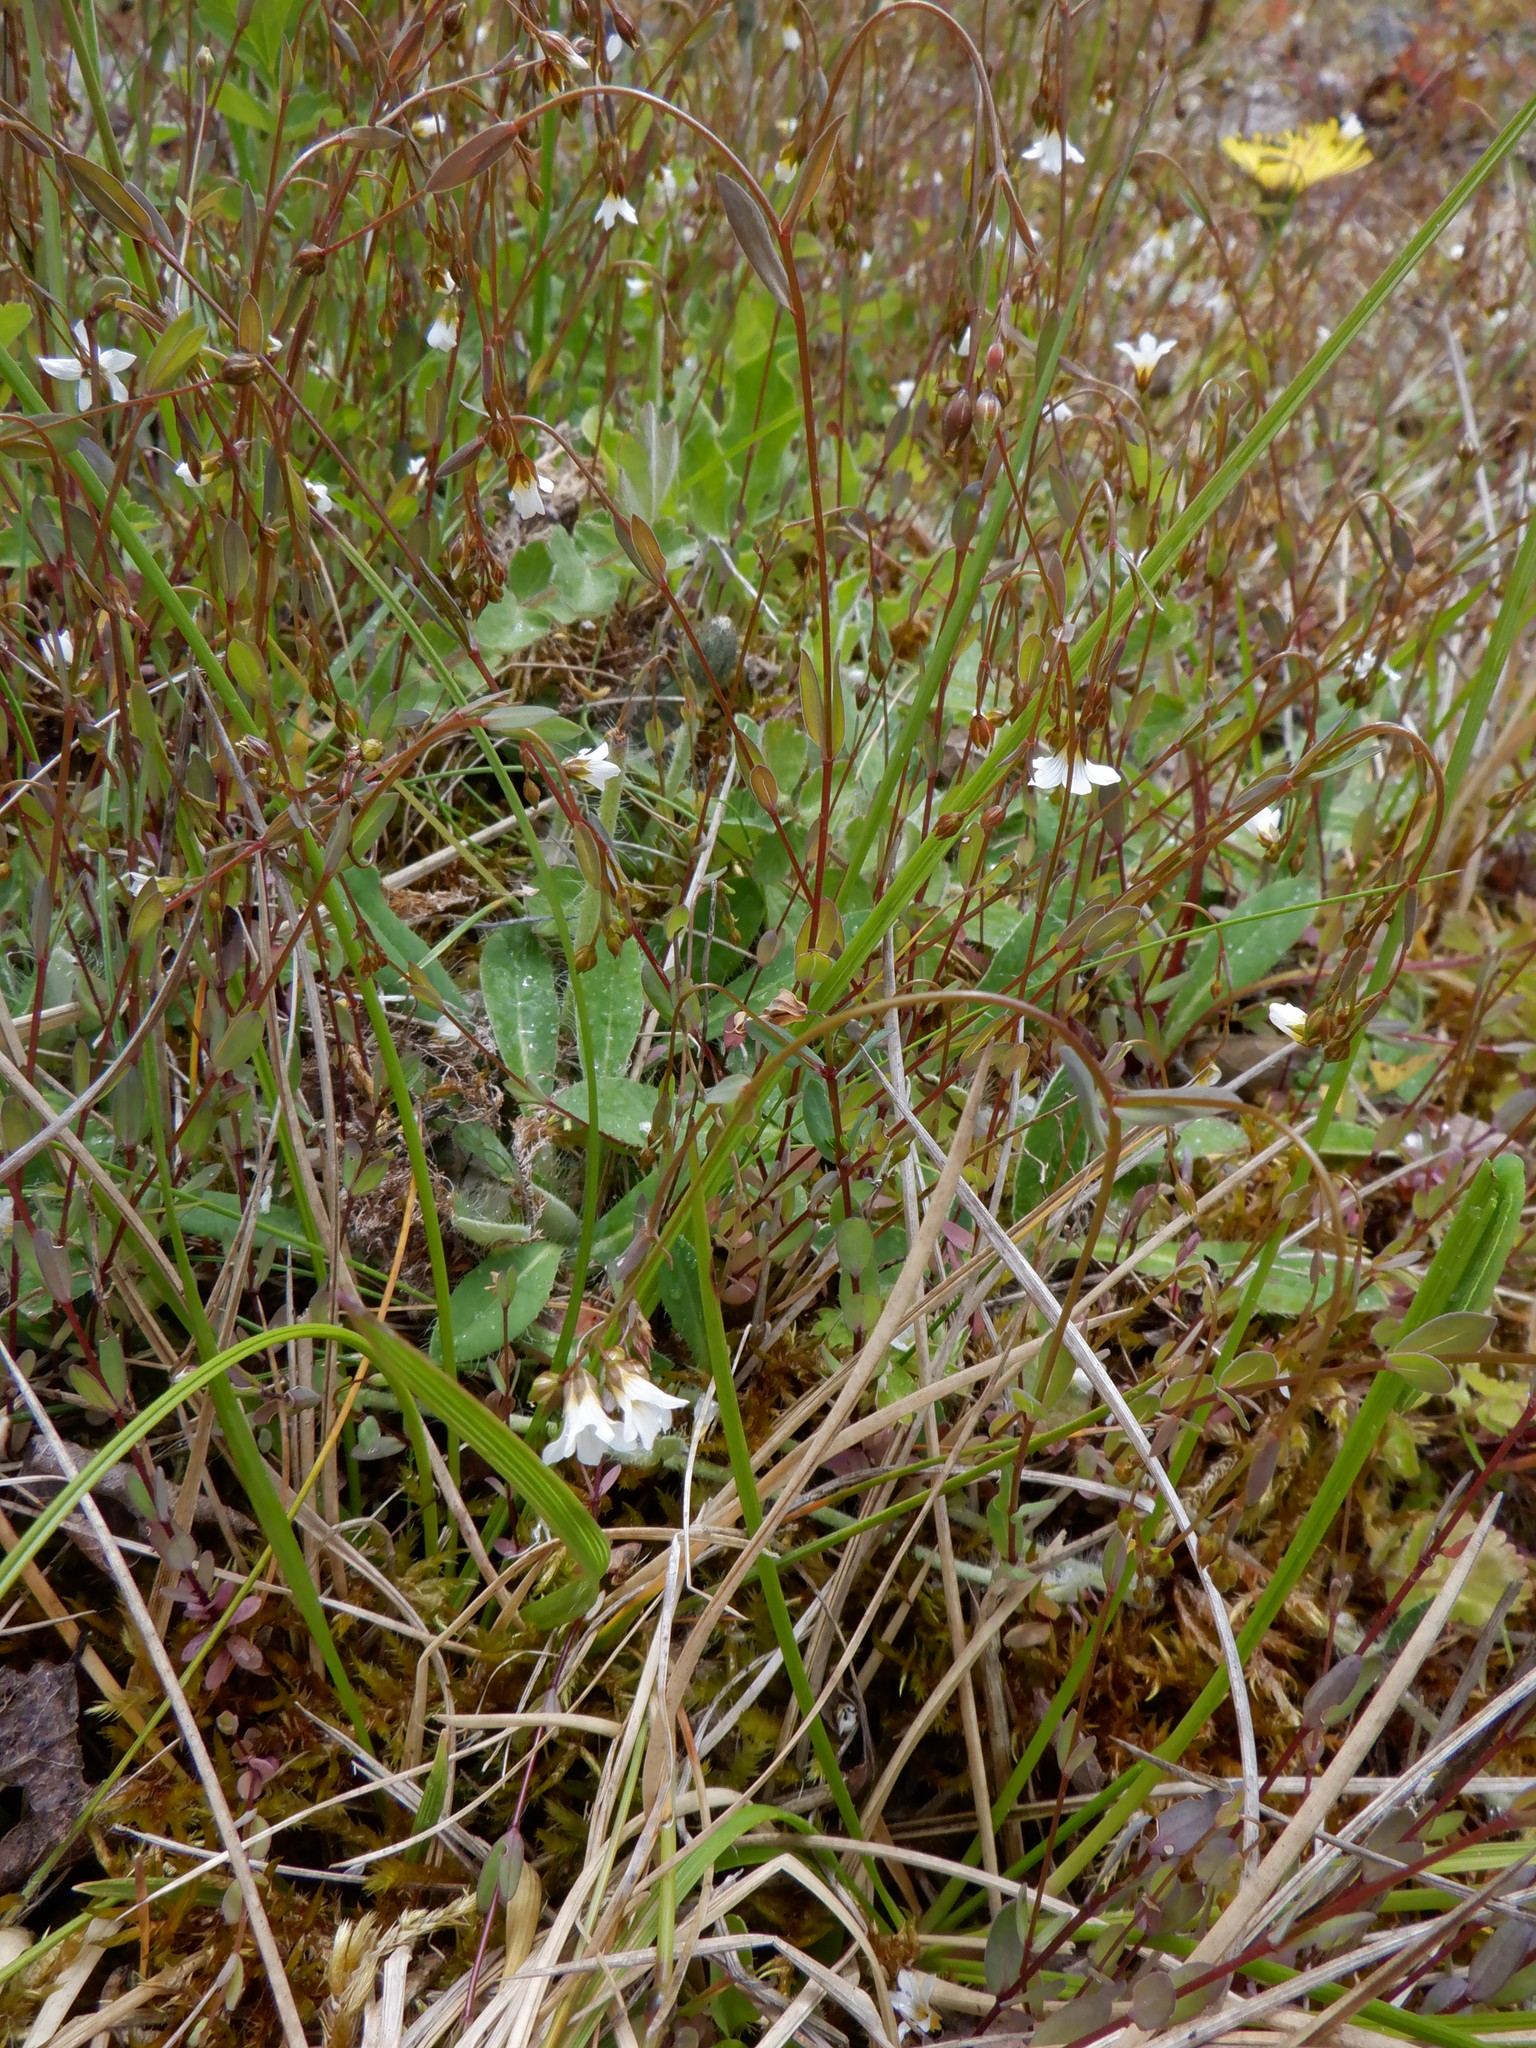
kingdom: Plantae
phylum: Tracheophyta
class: Magnoliopsida
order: Malpighiales
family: Linaceae
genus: Linum
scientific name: Linum catharticum
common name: Fairy flax
